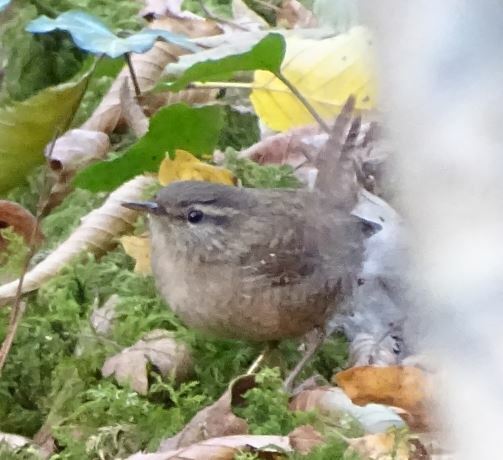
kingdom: Animalia
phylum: Chordata
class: Aves
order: Passeriformes
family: Troglodytidae
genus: Troglodytes
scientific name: Troglodytes troglodytes
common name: Eurasian wren
